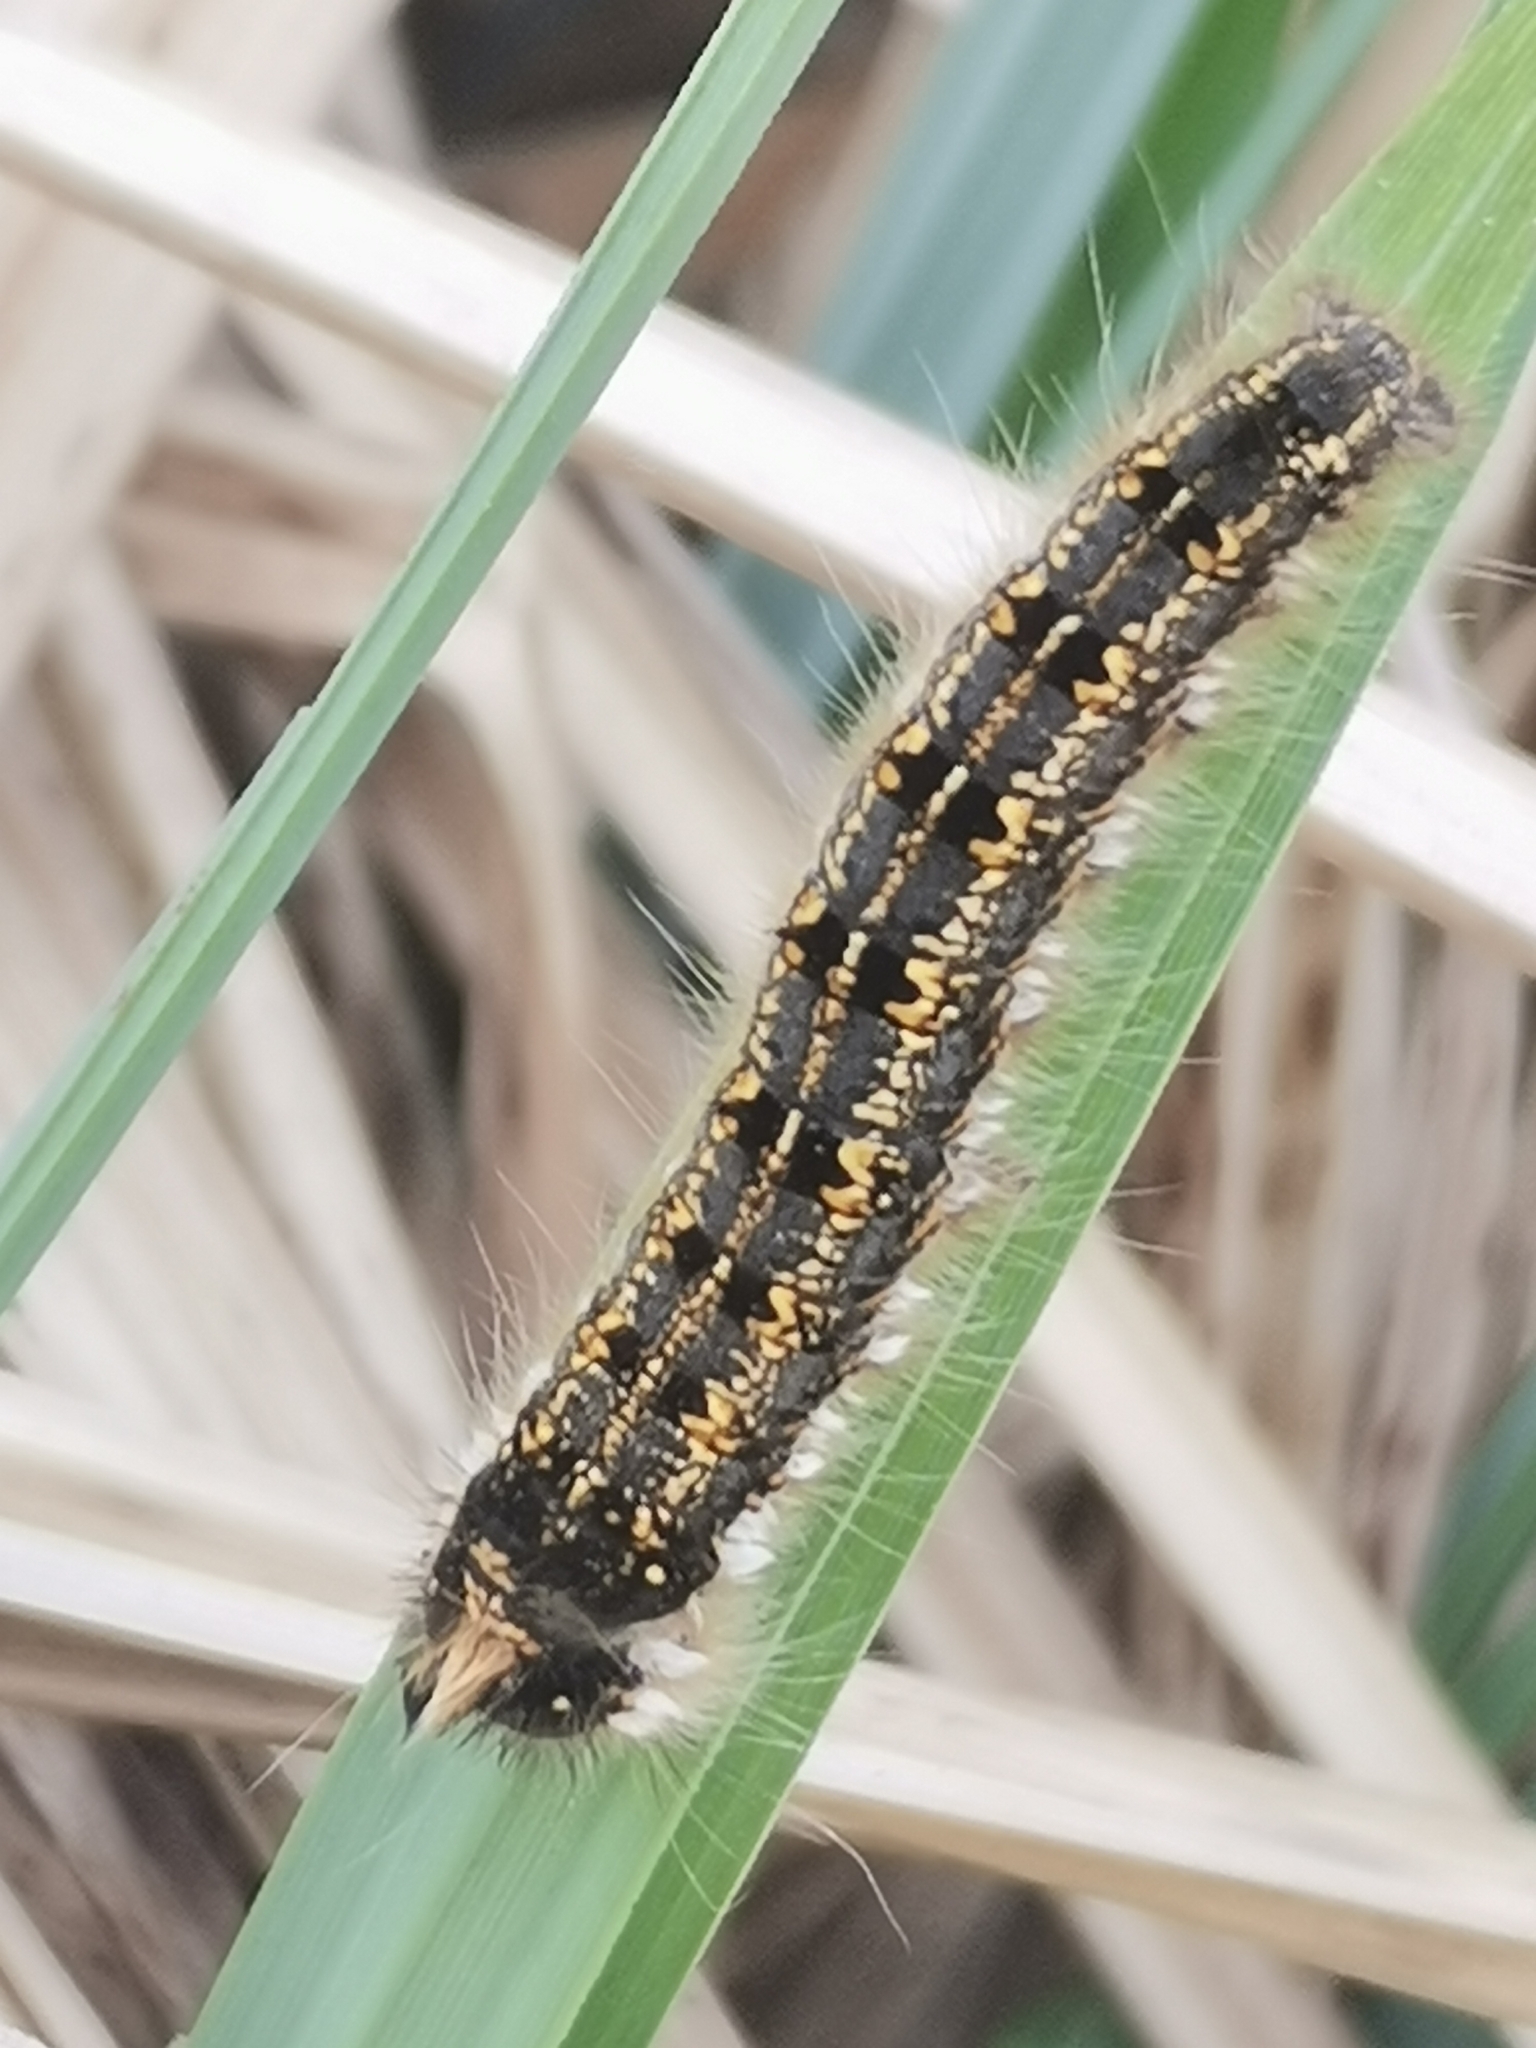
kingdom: Animalia
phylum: Arthropoda
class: Insecta
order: Lepidoptera
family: Lasiocampidae
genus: Euthrix
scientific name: Euthrix potatoria
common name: Drinker
